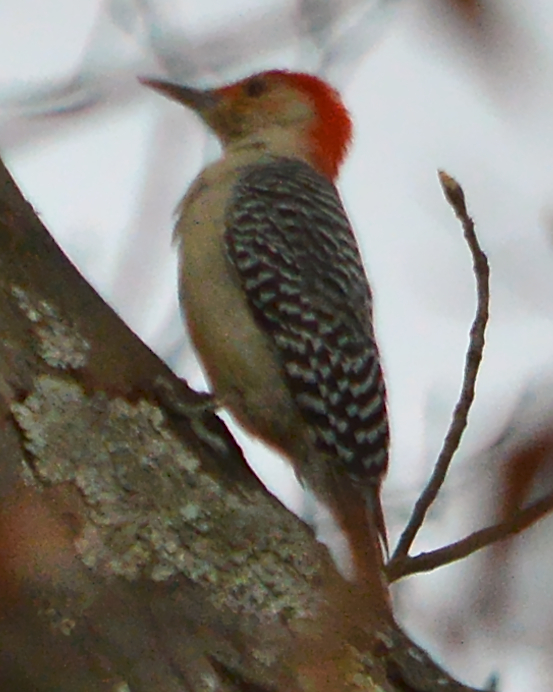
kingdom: Animalia
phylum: Chordata
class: Aves
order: Piciformes
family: Picidae
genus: Melanerpes
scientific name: Melanerpes carolinus
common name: Red-bellied woodpecker
